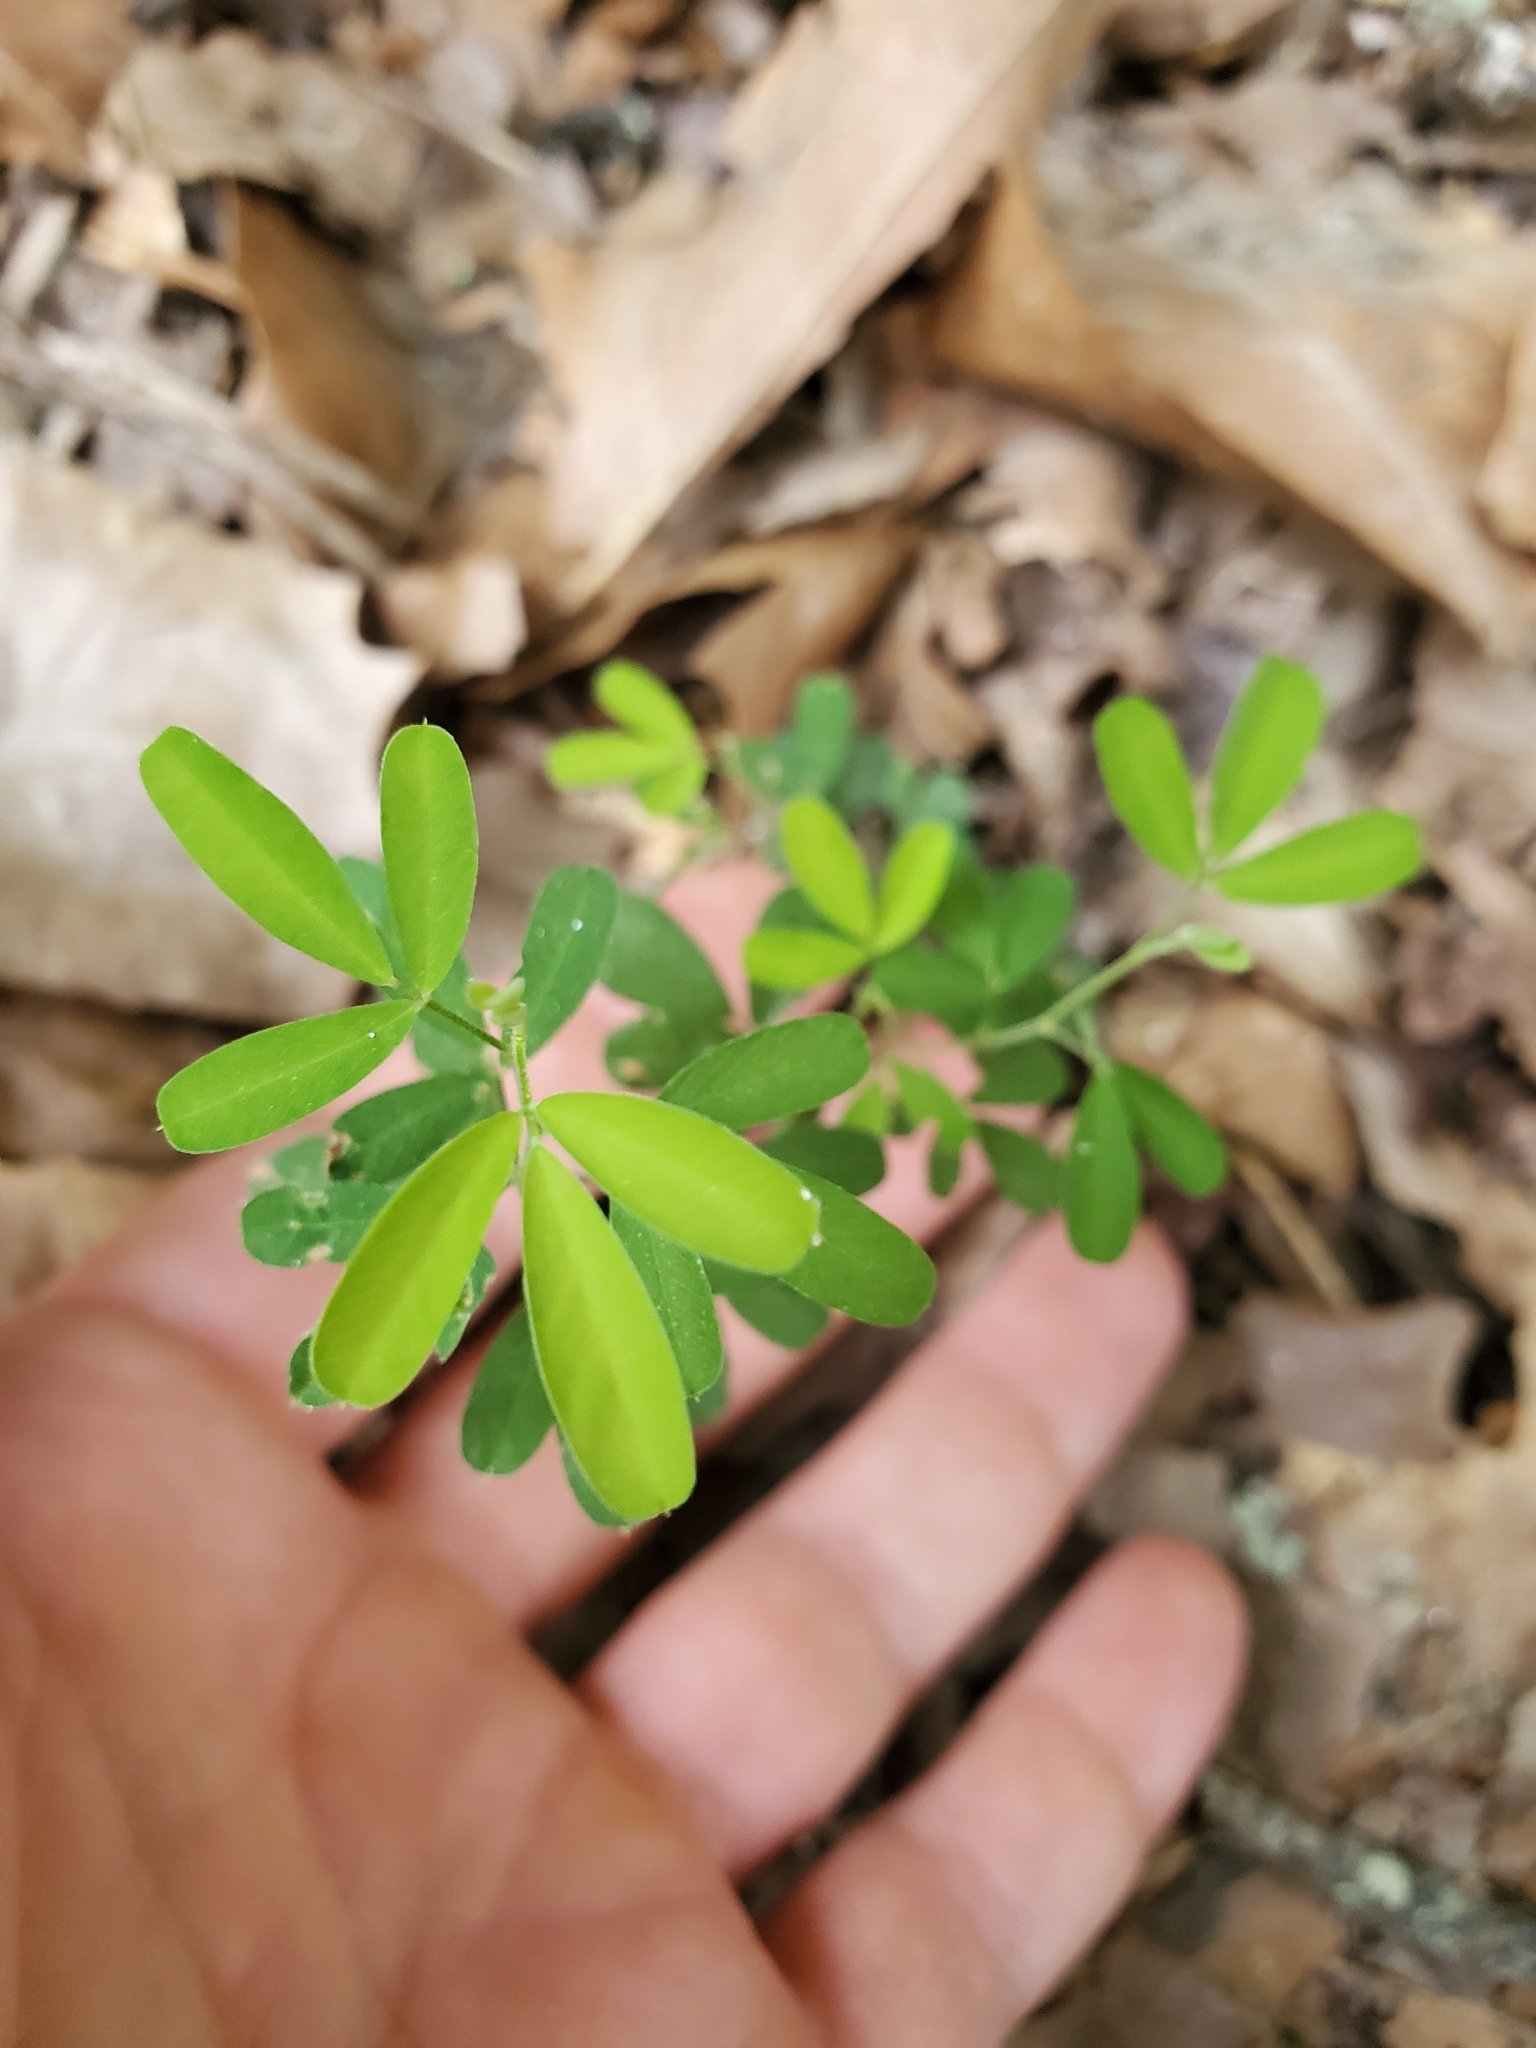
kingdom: Plantae
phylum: Tracheophyta
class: Magnoliopsida
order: Fabales
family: Fabaceae
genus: Lespedeza
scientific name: Lespedeza cuneata
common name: Chinese bush-clover
